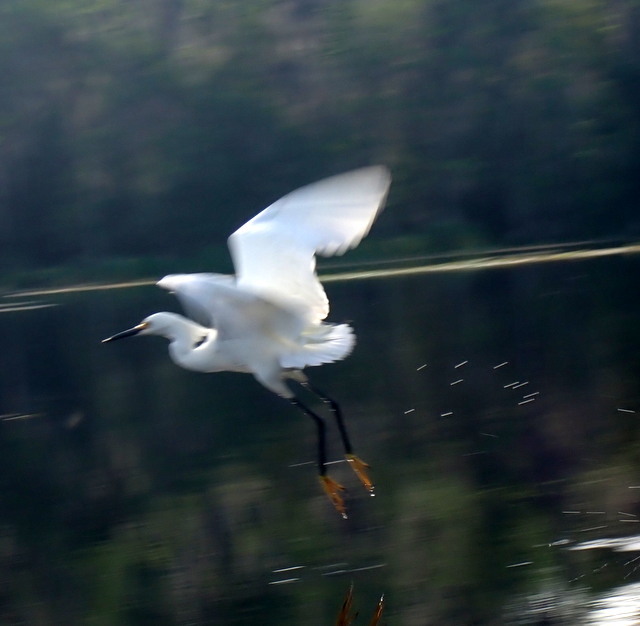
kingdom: Animalia
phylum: Chordata
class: Aves
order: Pelecaniformes
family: Ardeidae
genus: Egretta
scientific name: Egretta thula
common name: Snowy egret
